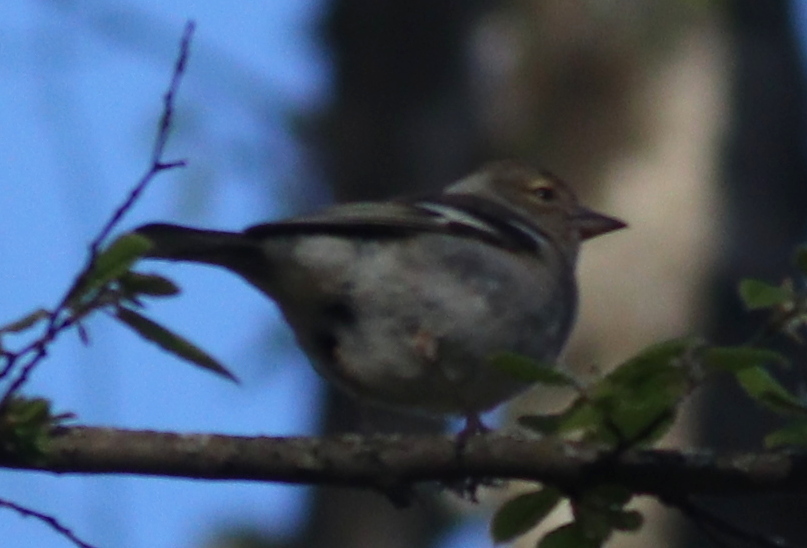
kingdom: Animalia
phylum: Chordata
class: Aves
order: Passeriformes
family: Fringillidae
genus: Fringilla
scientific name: Fringilla coelebs
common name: Common chaffinch
